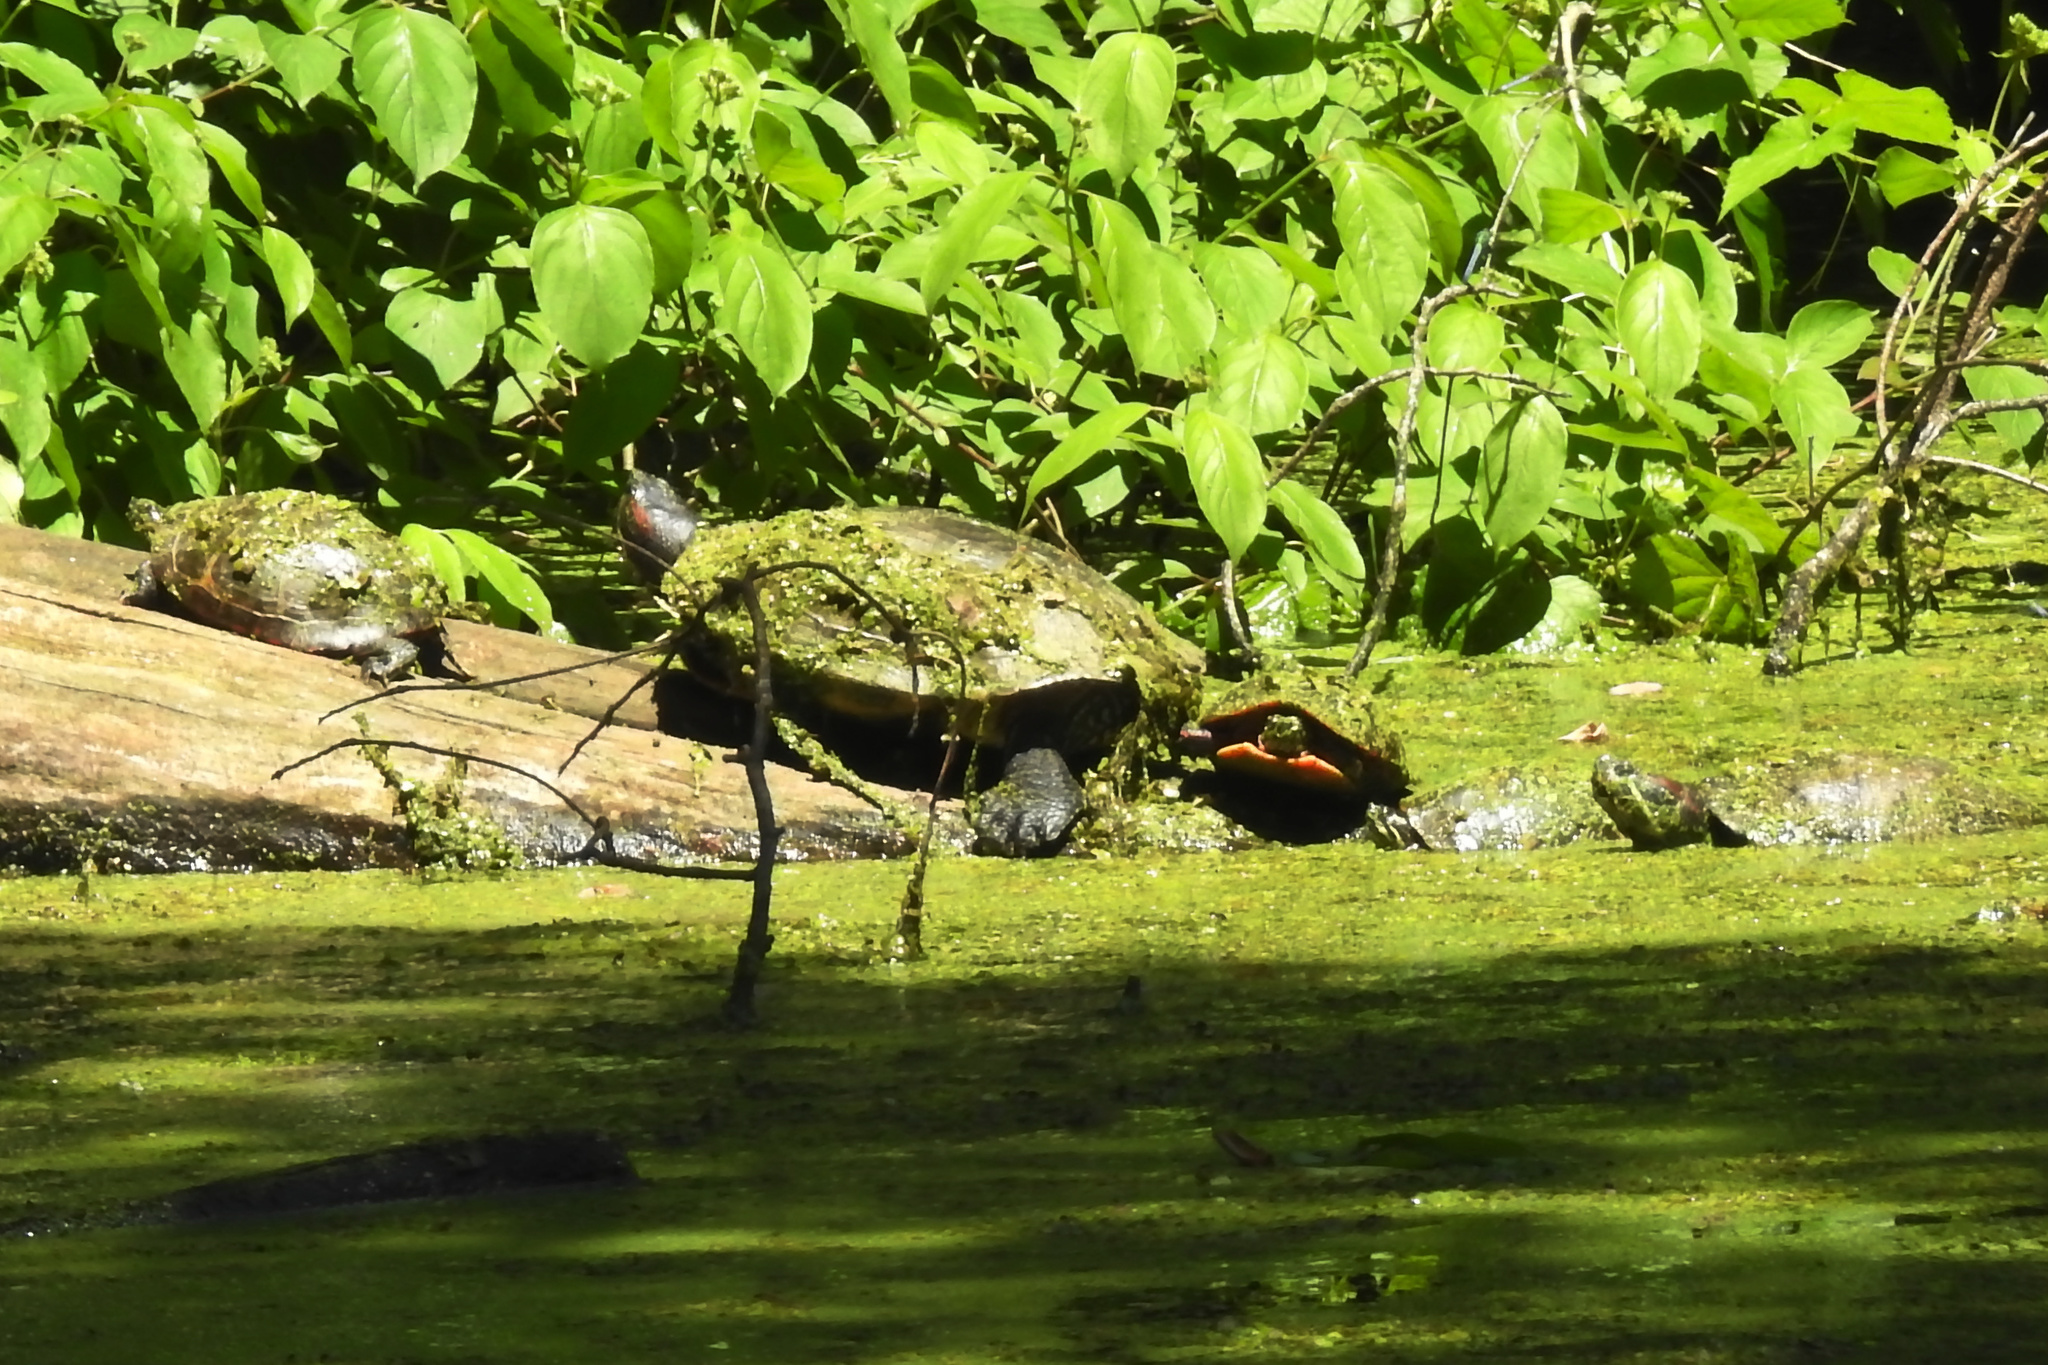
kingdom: Animalia
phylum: Chordata
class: Testudines
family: Emydidae
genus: Trachemys
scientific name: Trachemys scripta
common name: Slider
